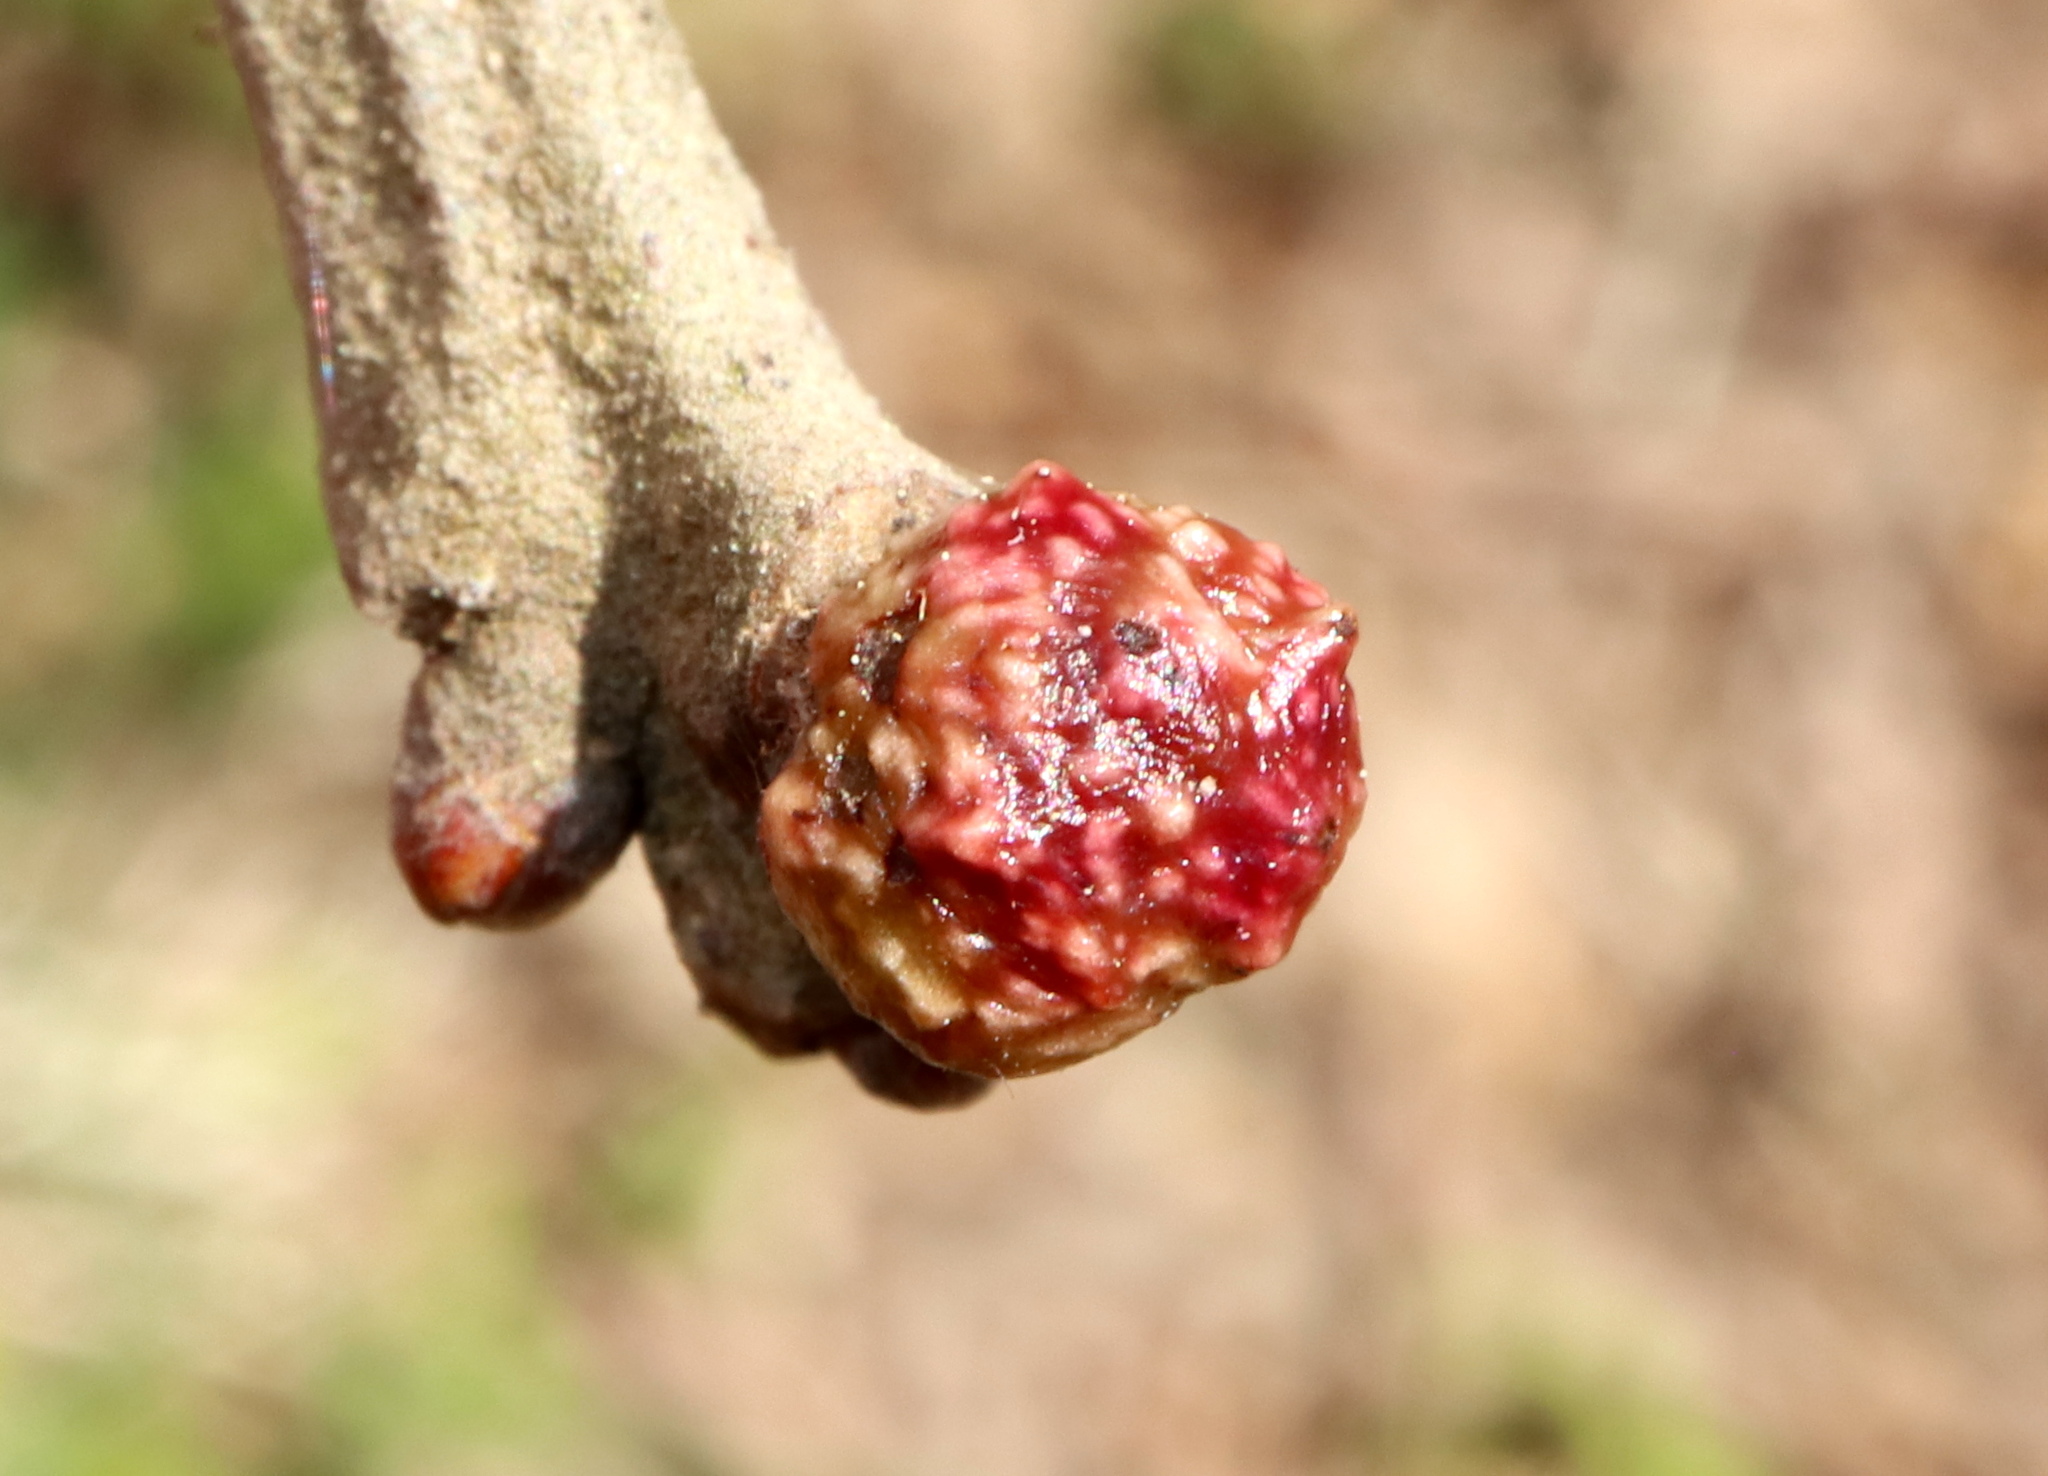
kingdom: Animalia
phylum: Arthropoda
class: Insecta
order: Hymenoptera
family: Cynipidae
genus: Andricus
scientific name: Andricus
